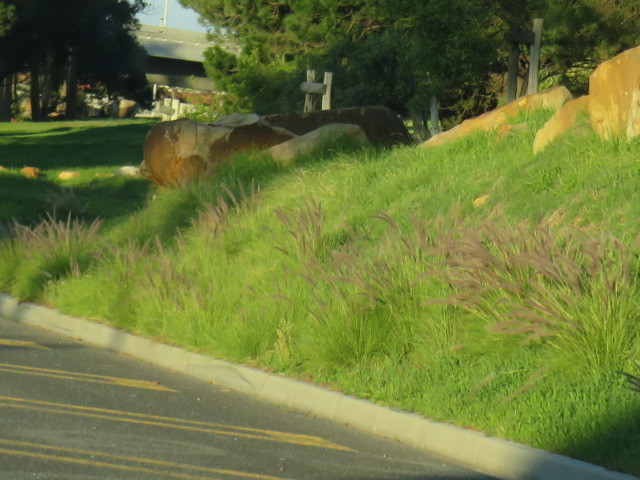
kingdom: Plantae
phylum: Tracheophyta
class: Liliopsida
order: Poales
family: Poaceae
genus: Cenchrus
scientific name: Cenchrus setaceus
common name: Crimson fountaingrass
